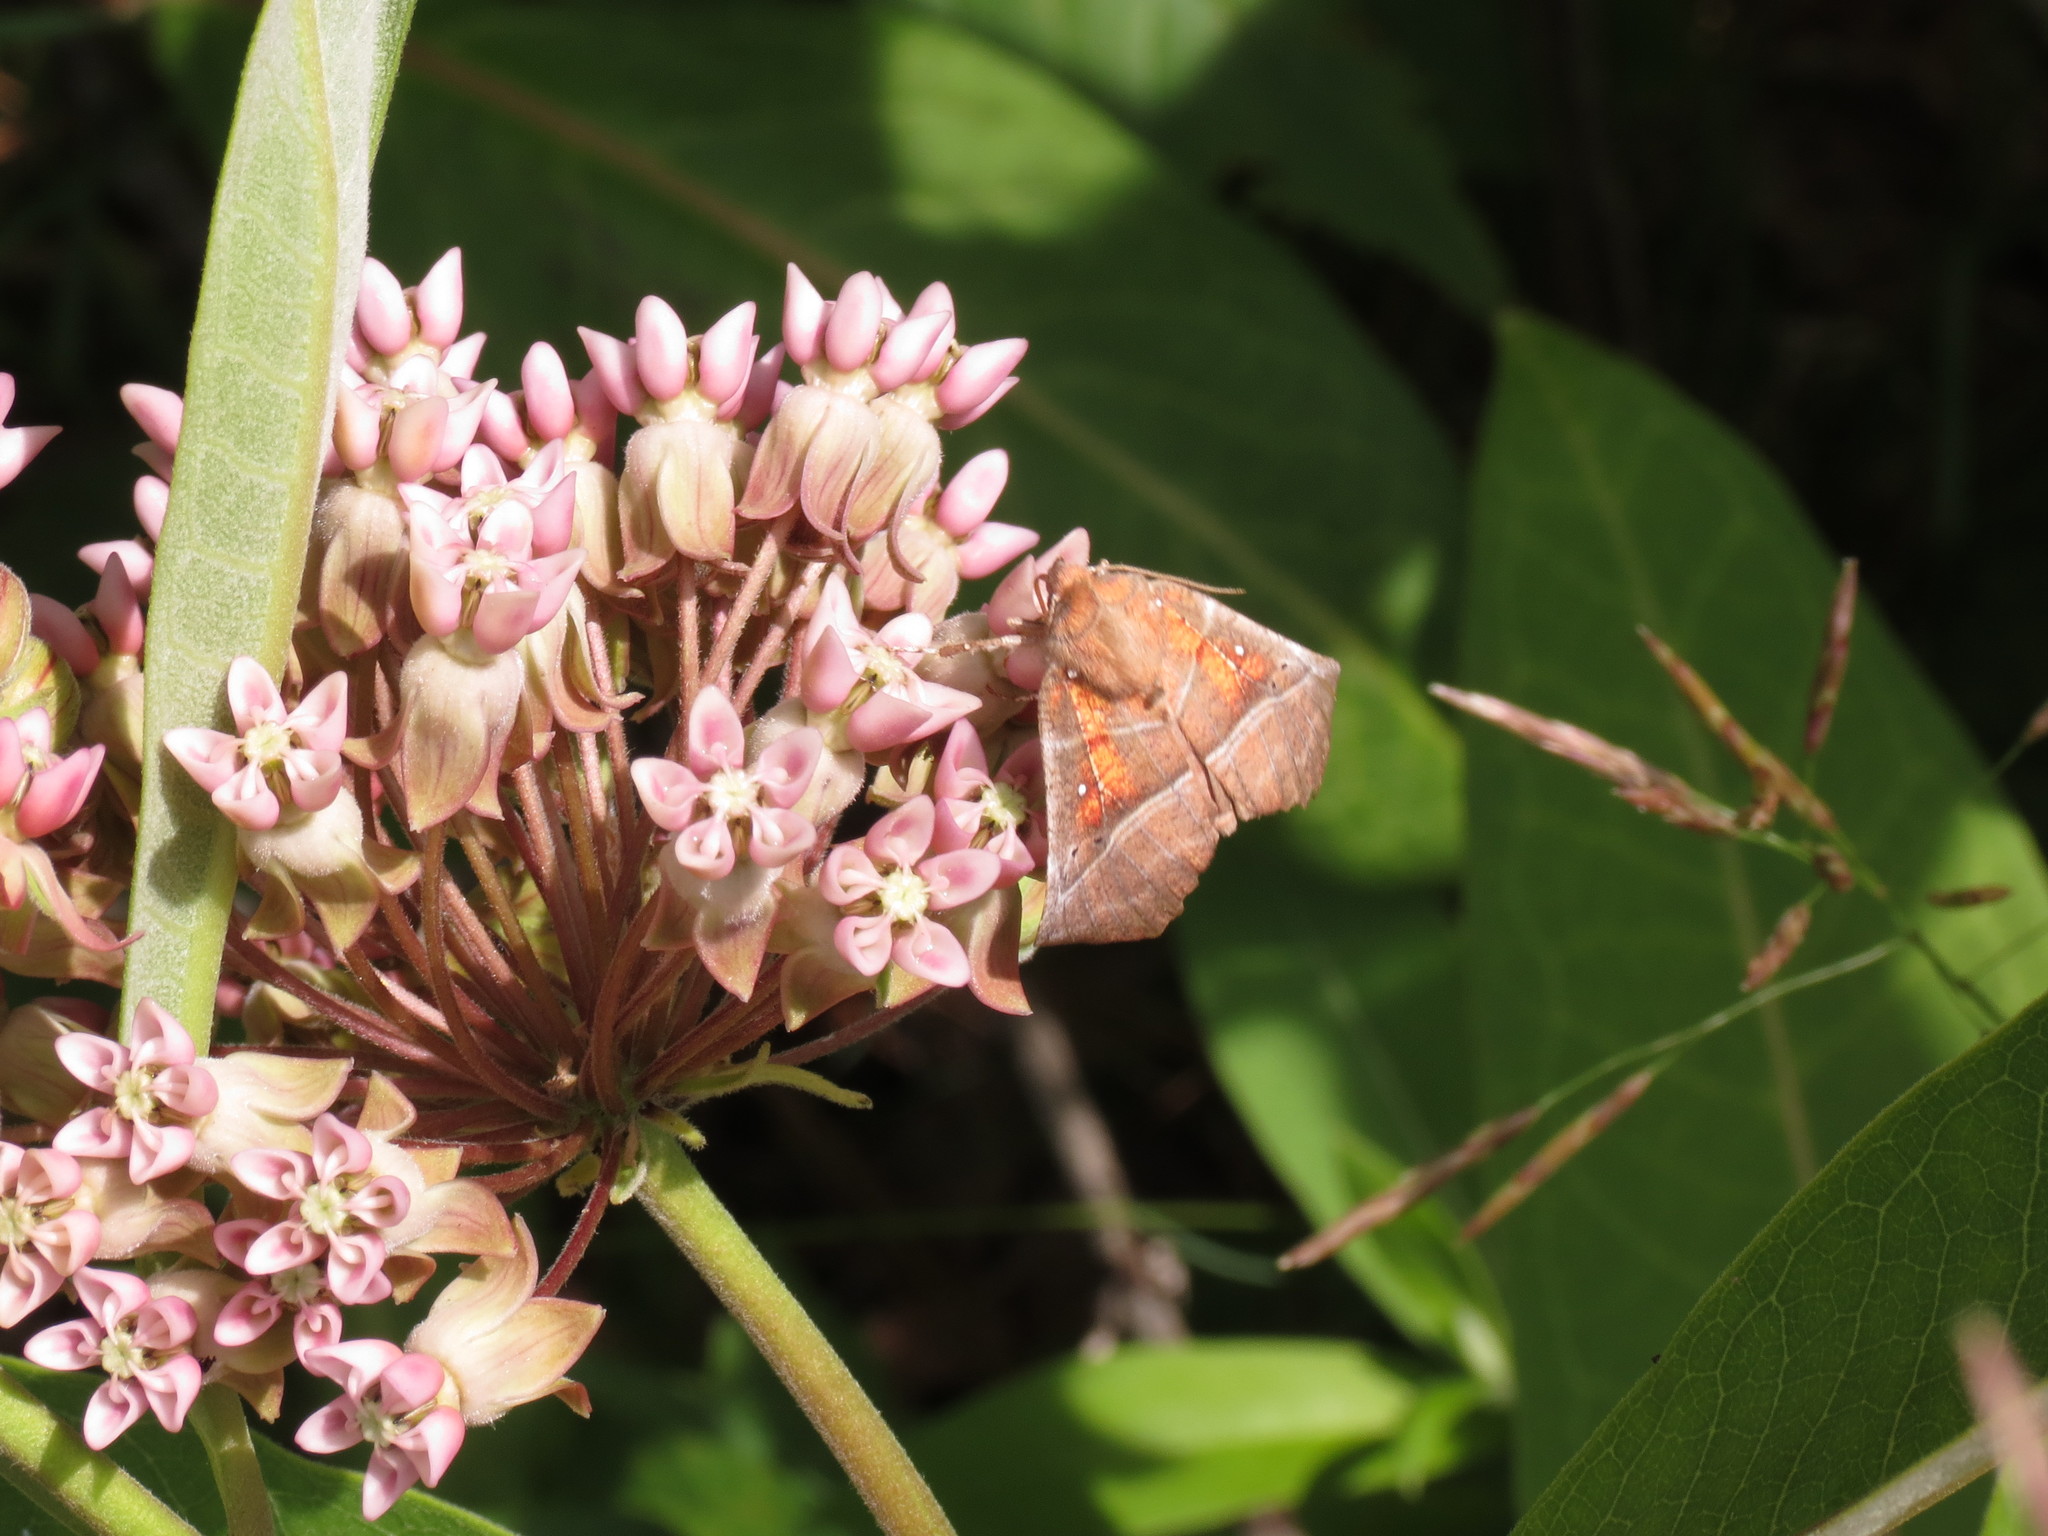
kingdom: Animalia
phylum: Arthropoda
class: Insecta
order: Lepidoptera
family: Erebidae
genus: Scoliopteryx
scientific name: Scoliopteryx libatrix
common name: Herald
